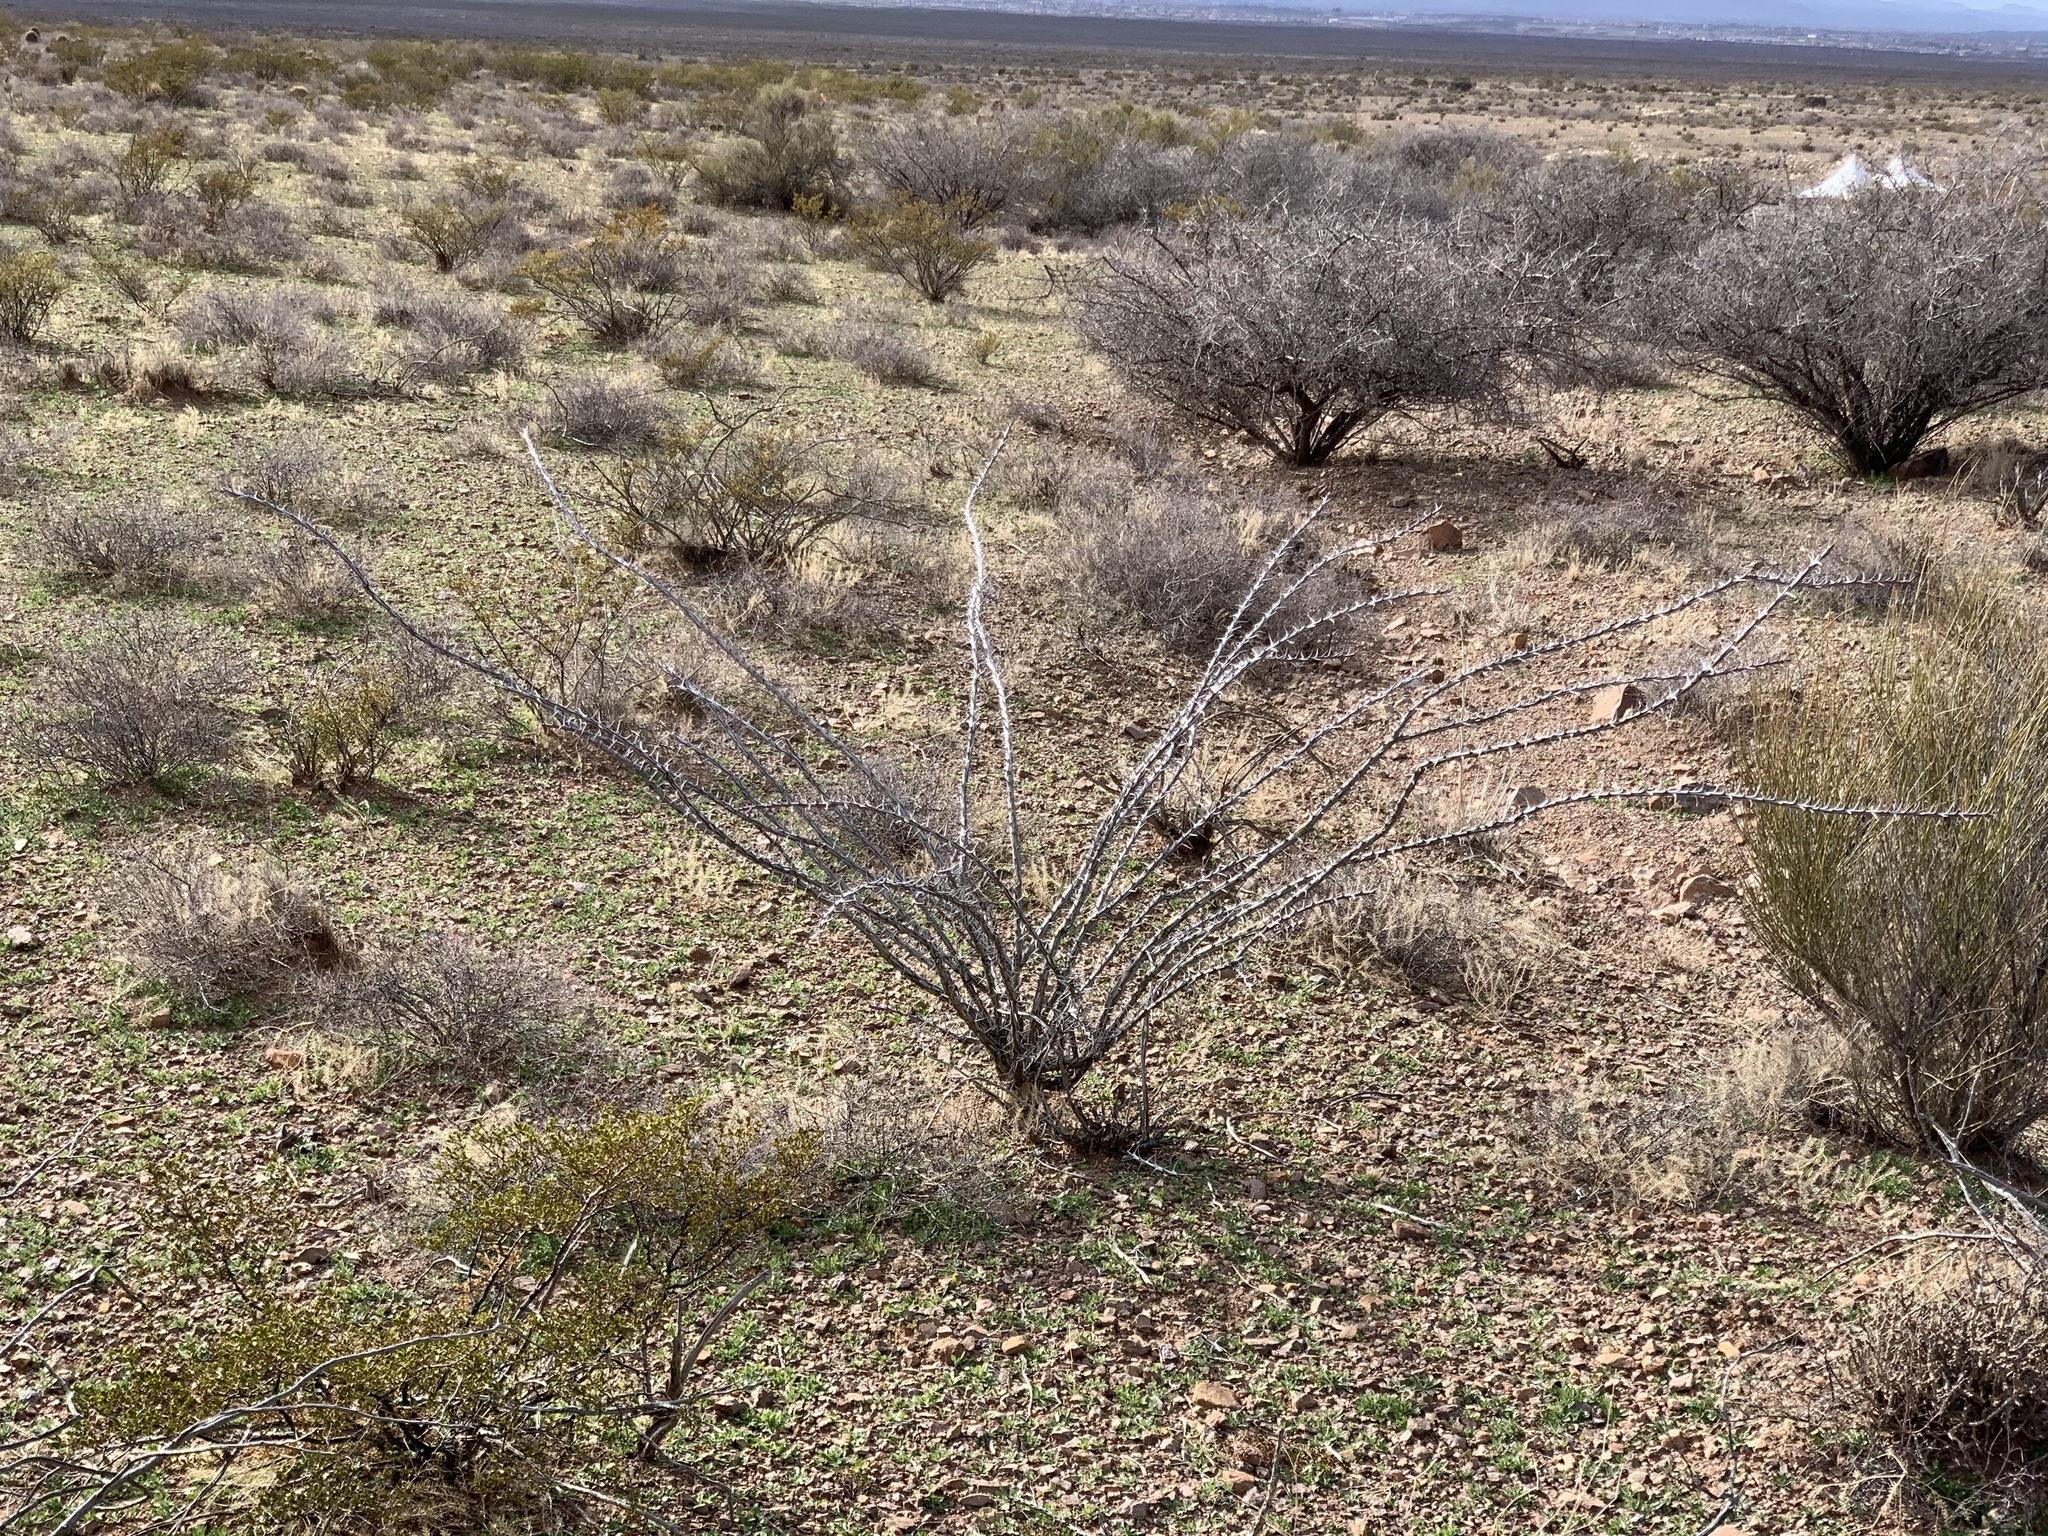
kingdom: Plantae
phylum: Tracheophyta
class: Magnoliopsida
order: Ericales
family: Fouquieriaceae
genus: Fouquieria
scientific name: Fouquieria splendens
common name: Vine-cactus
